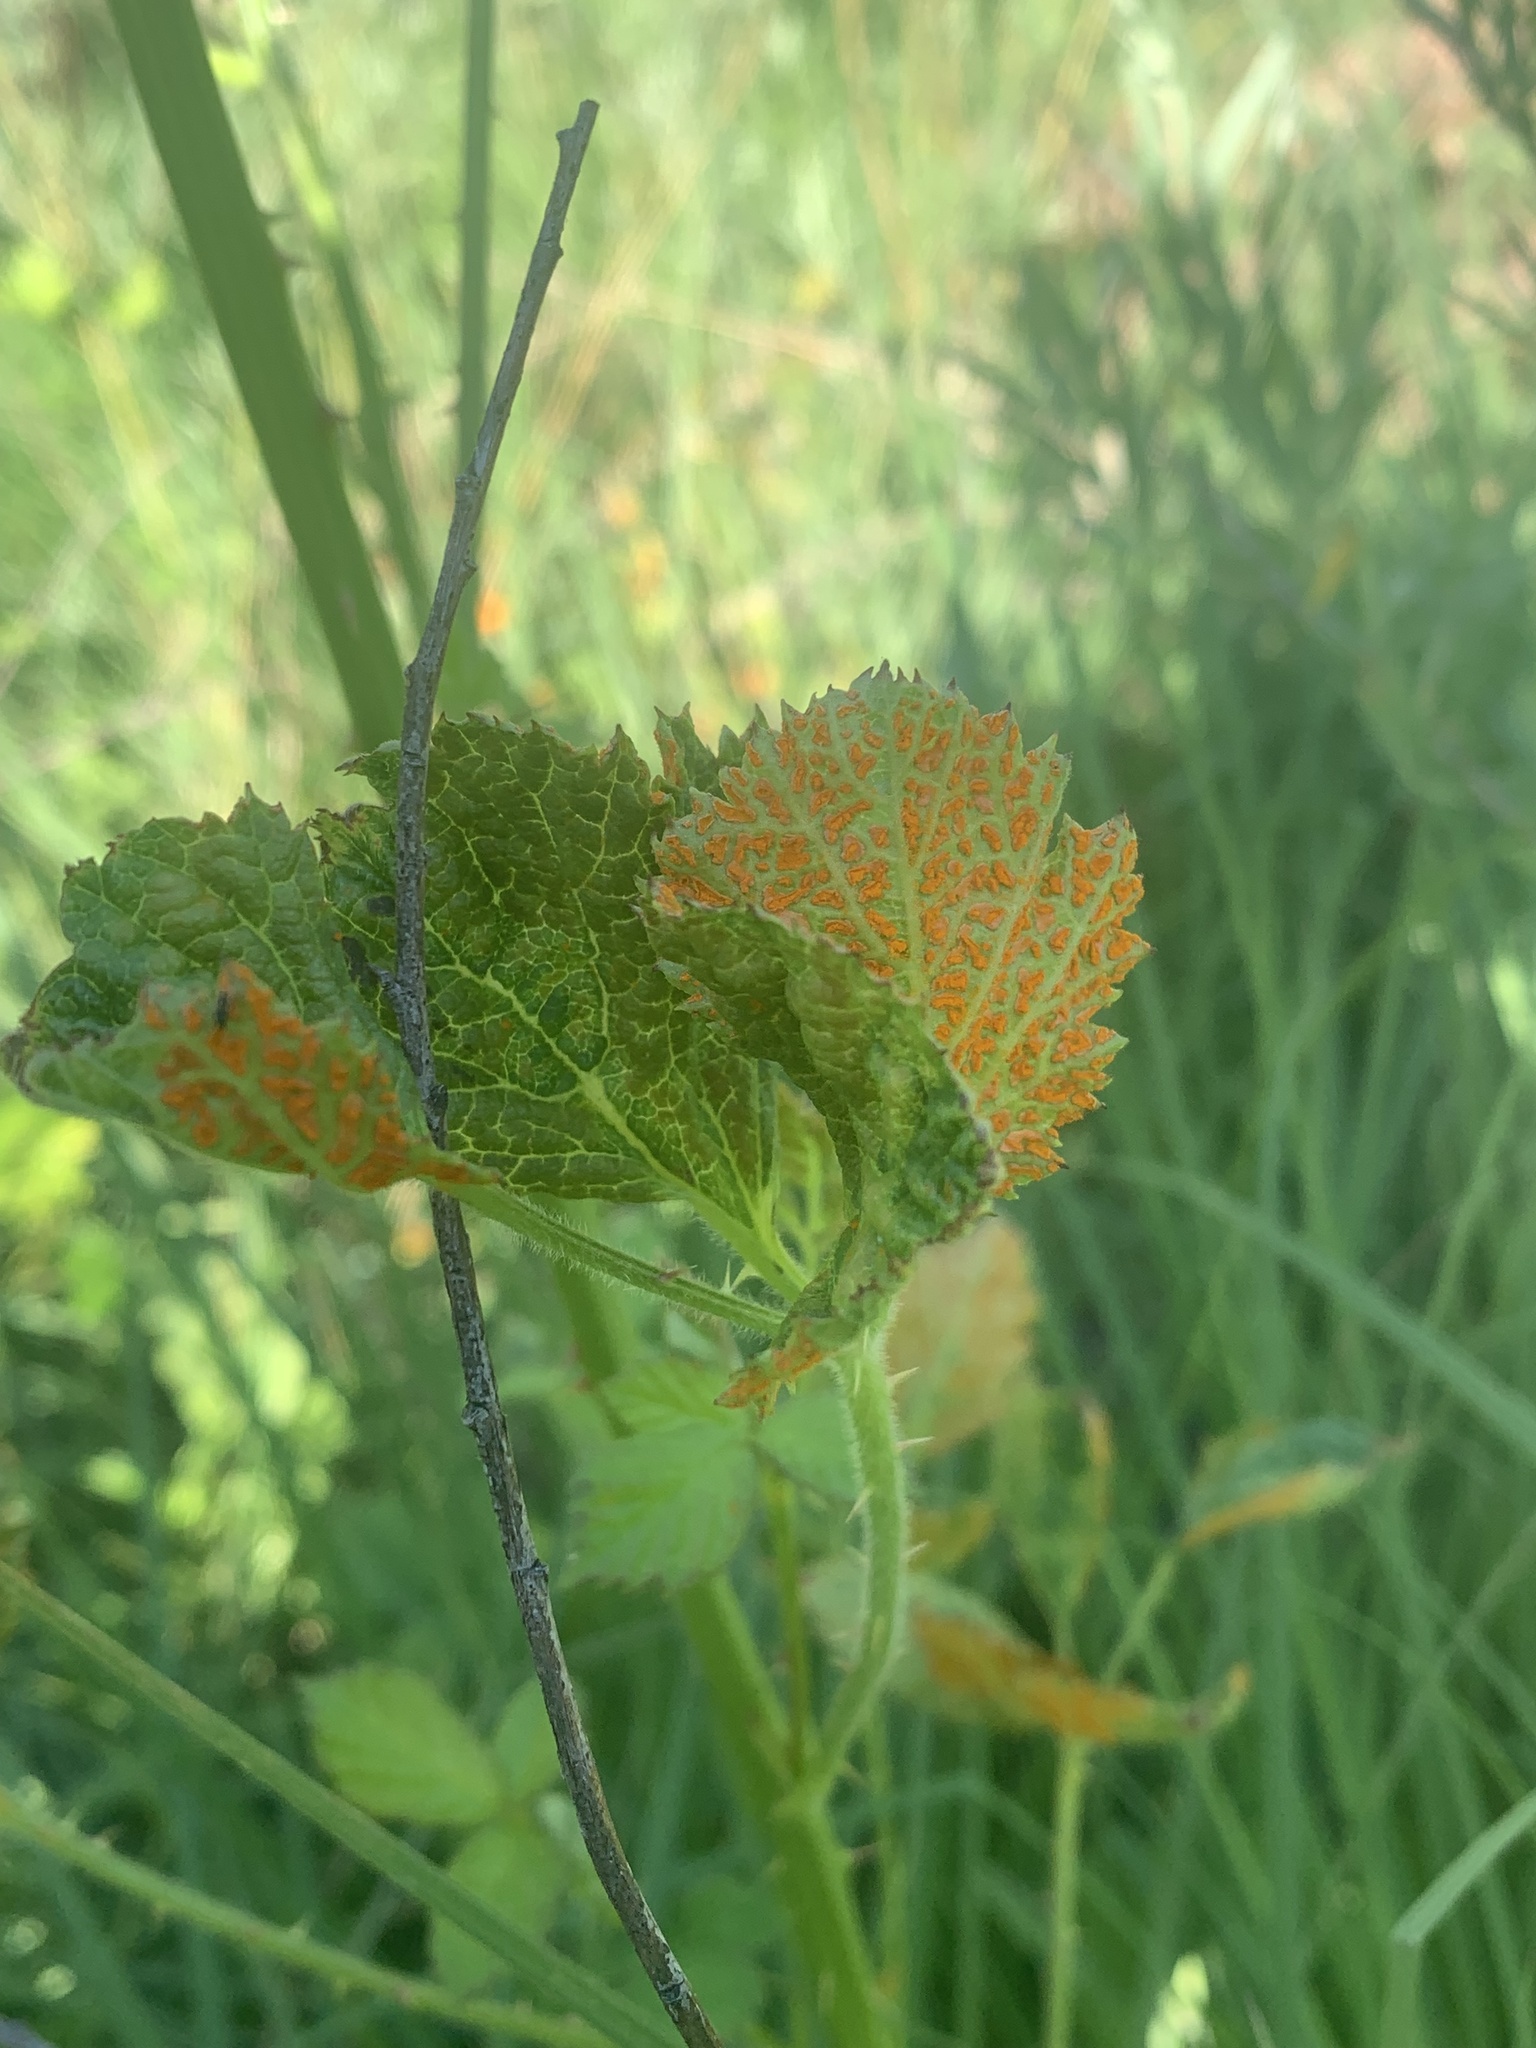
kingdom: Fungi
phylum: Basidiomycota
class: Pucciniomycetes
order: Pucciniales
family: Phragmidiaceae
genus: Arthuriomyces
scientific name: Arthuriomyces peckianus
